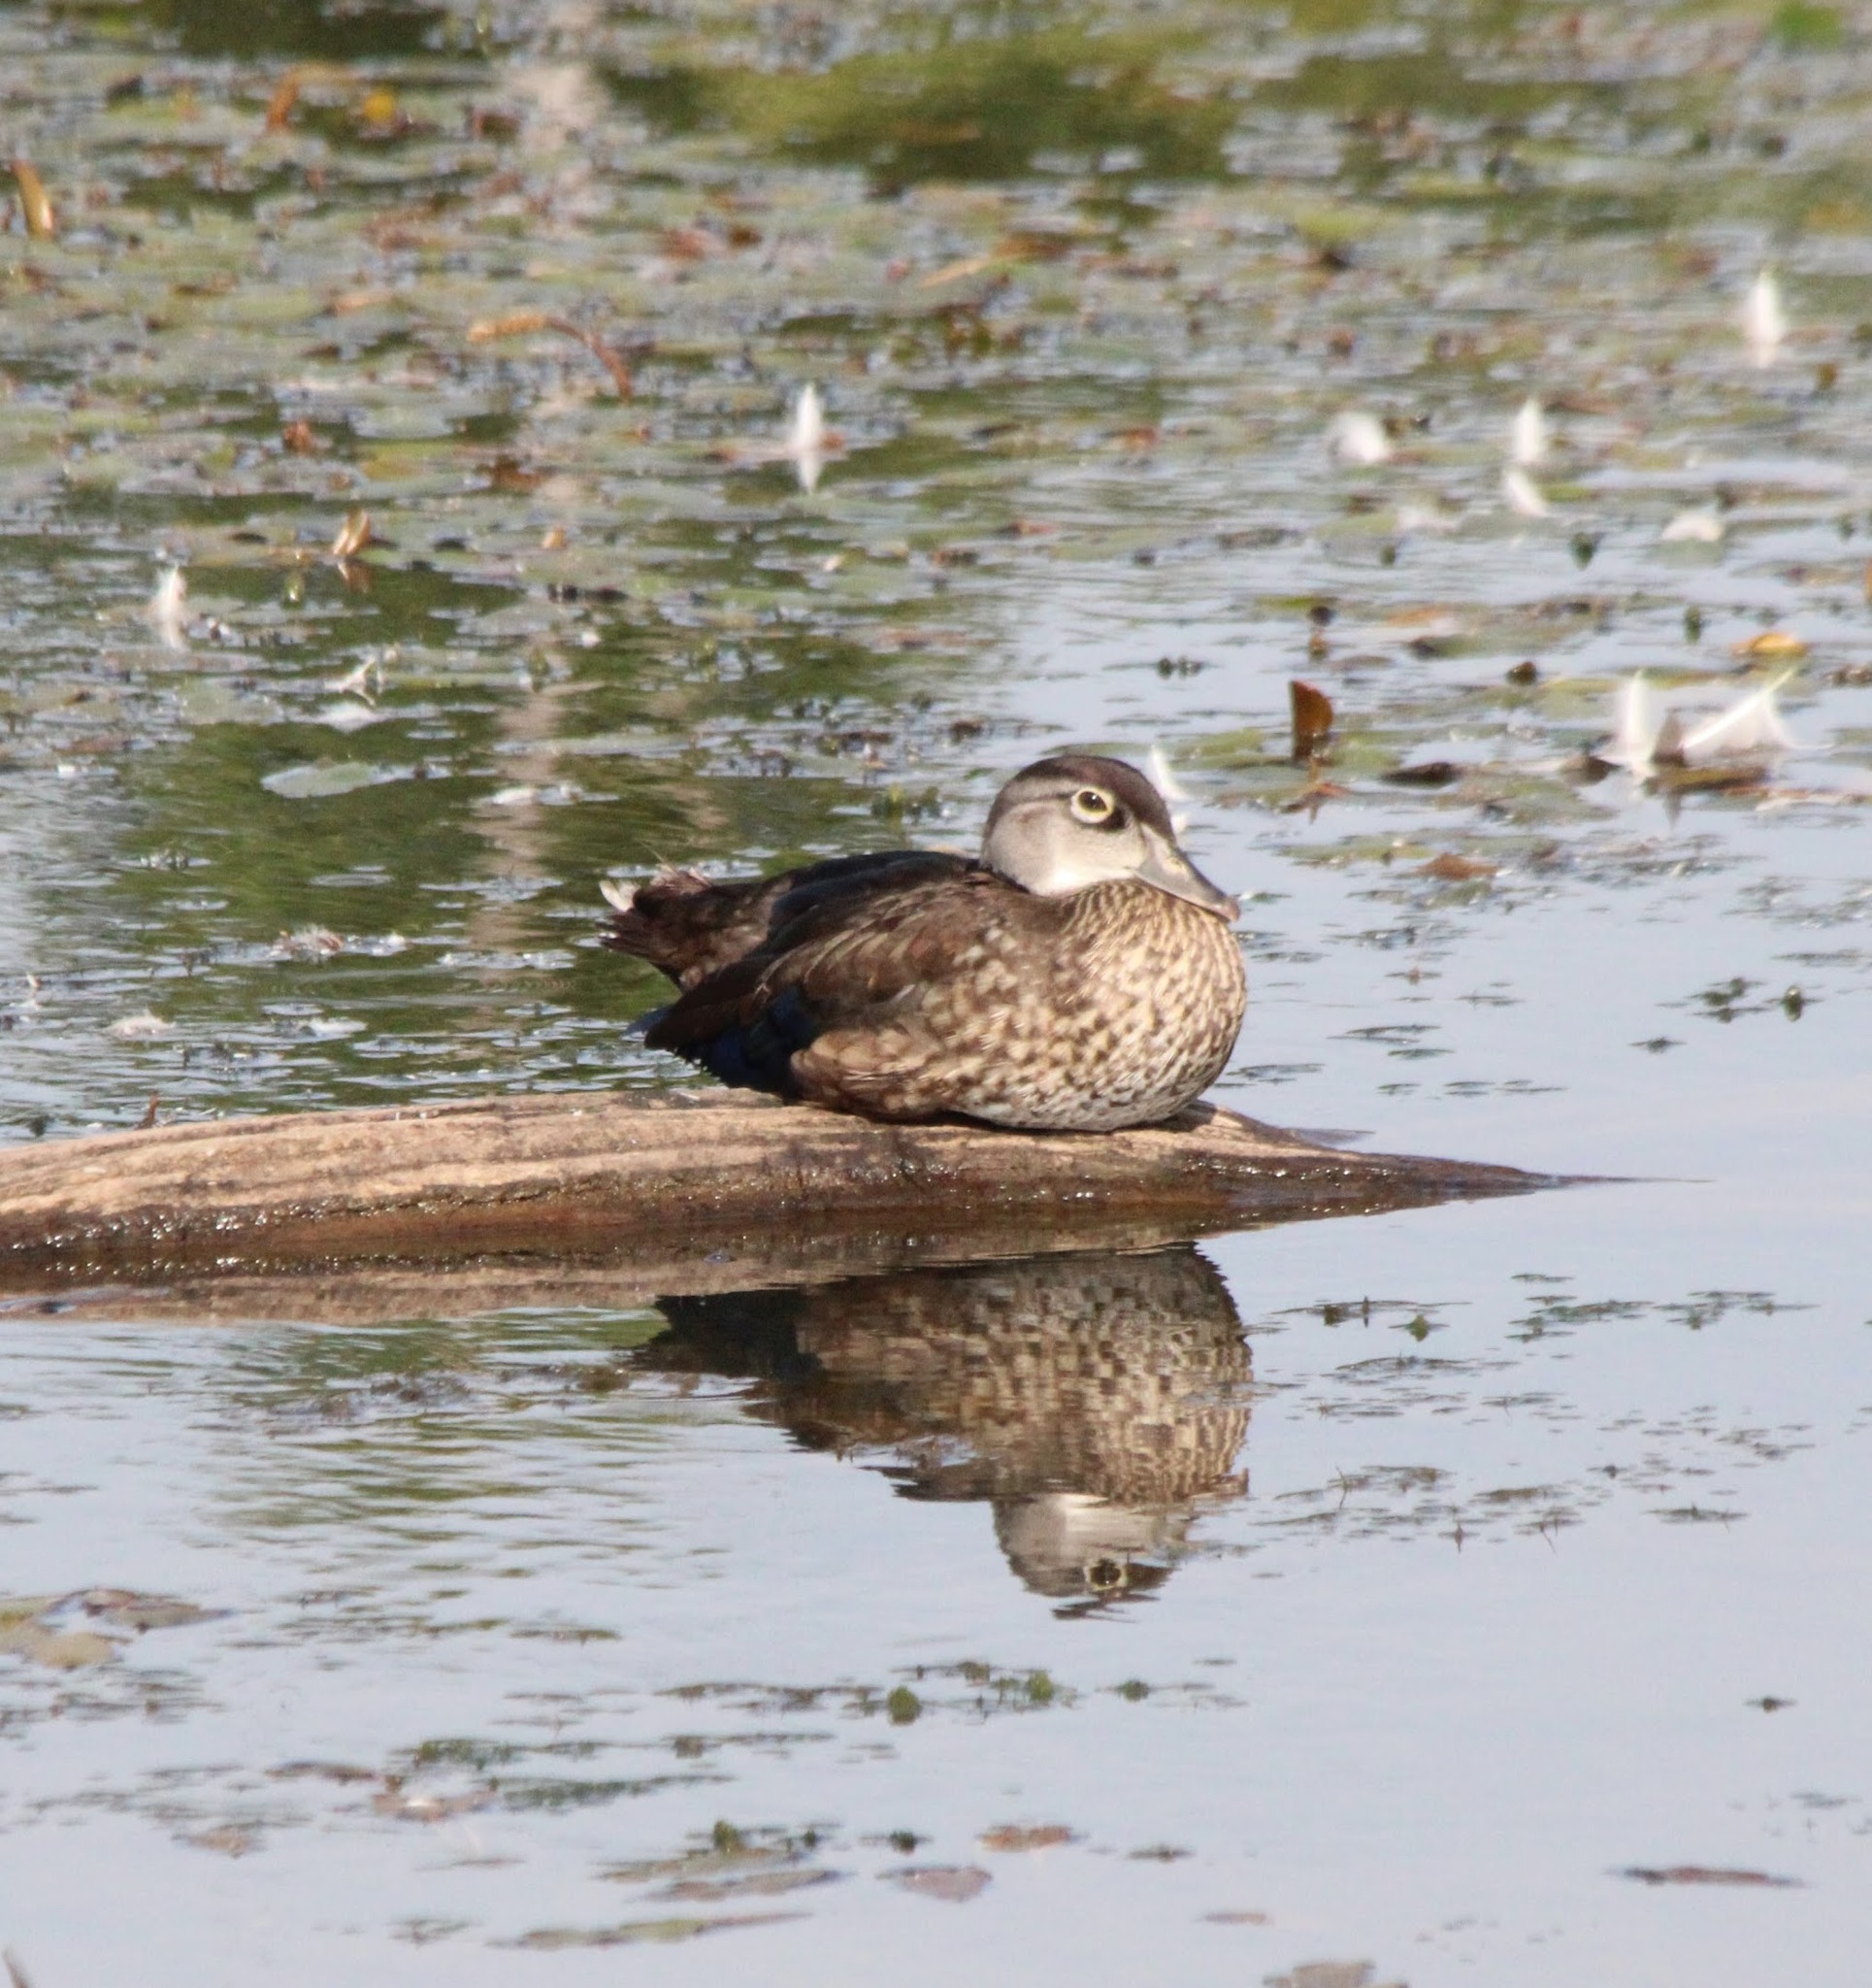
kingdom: Animalia
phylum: Chordata
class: Aves
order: Anseriformes
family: Anatidae
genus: Aix
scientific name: Aix sponsa
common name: Wood duck
